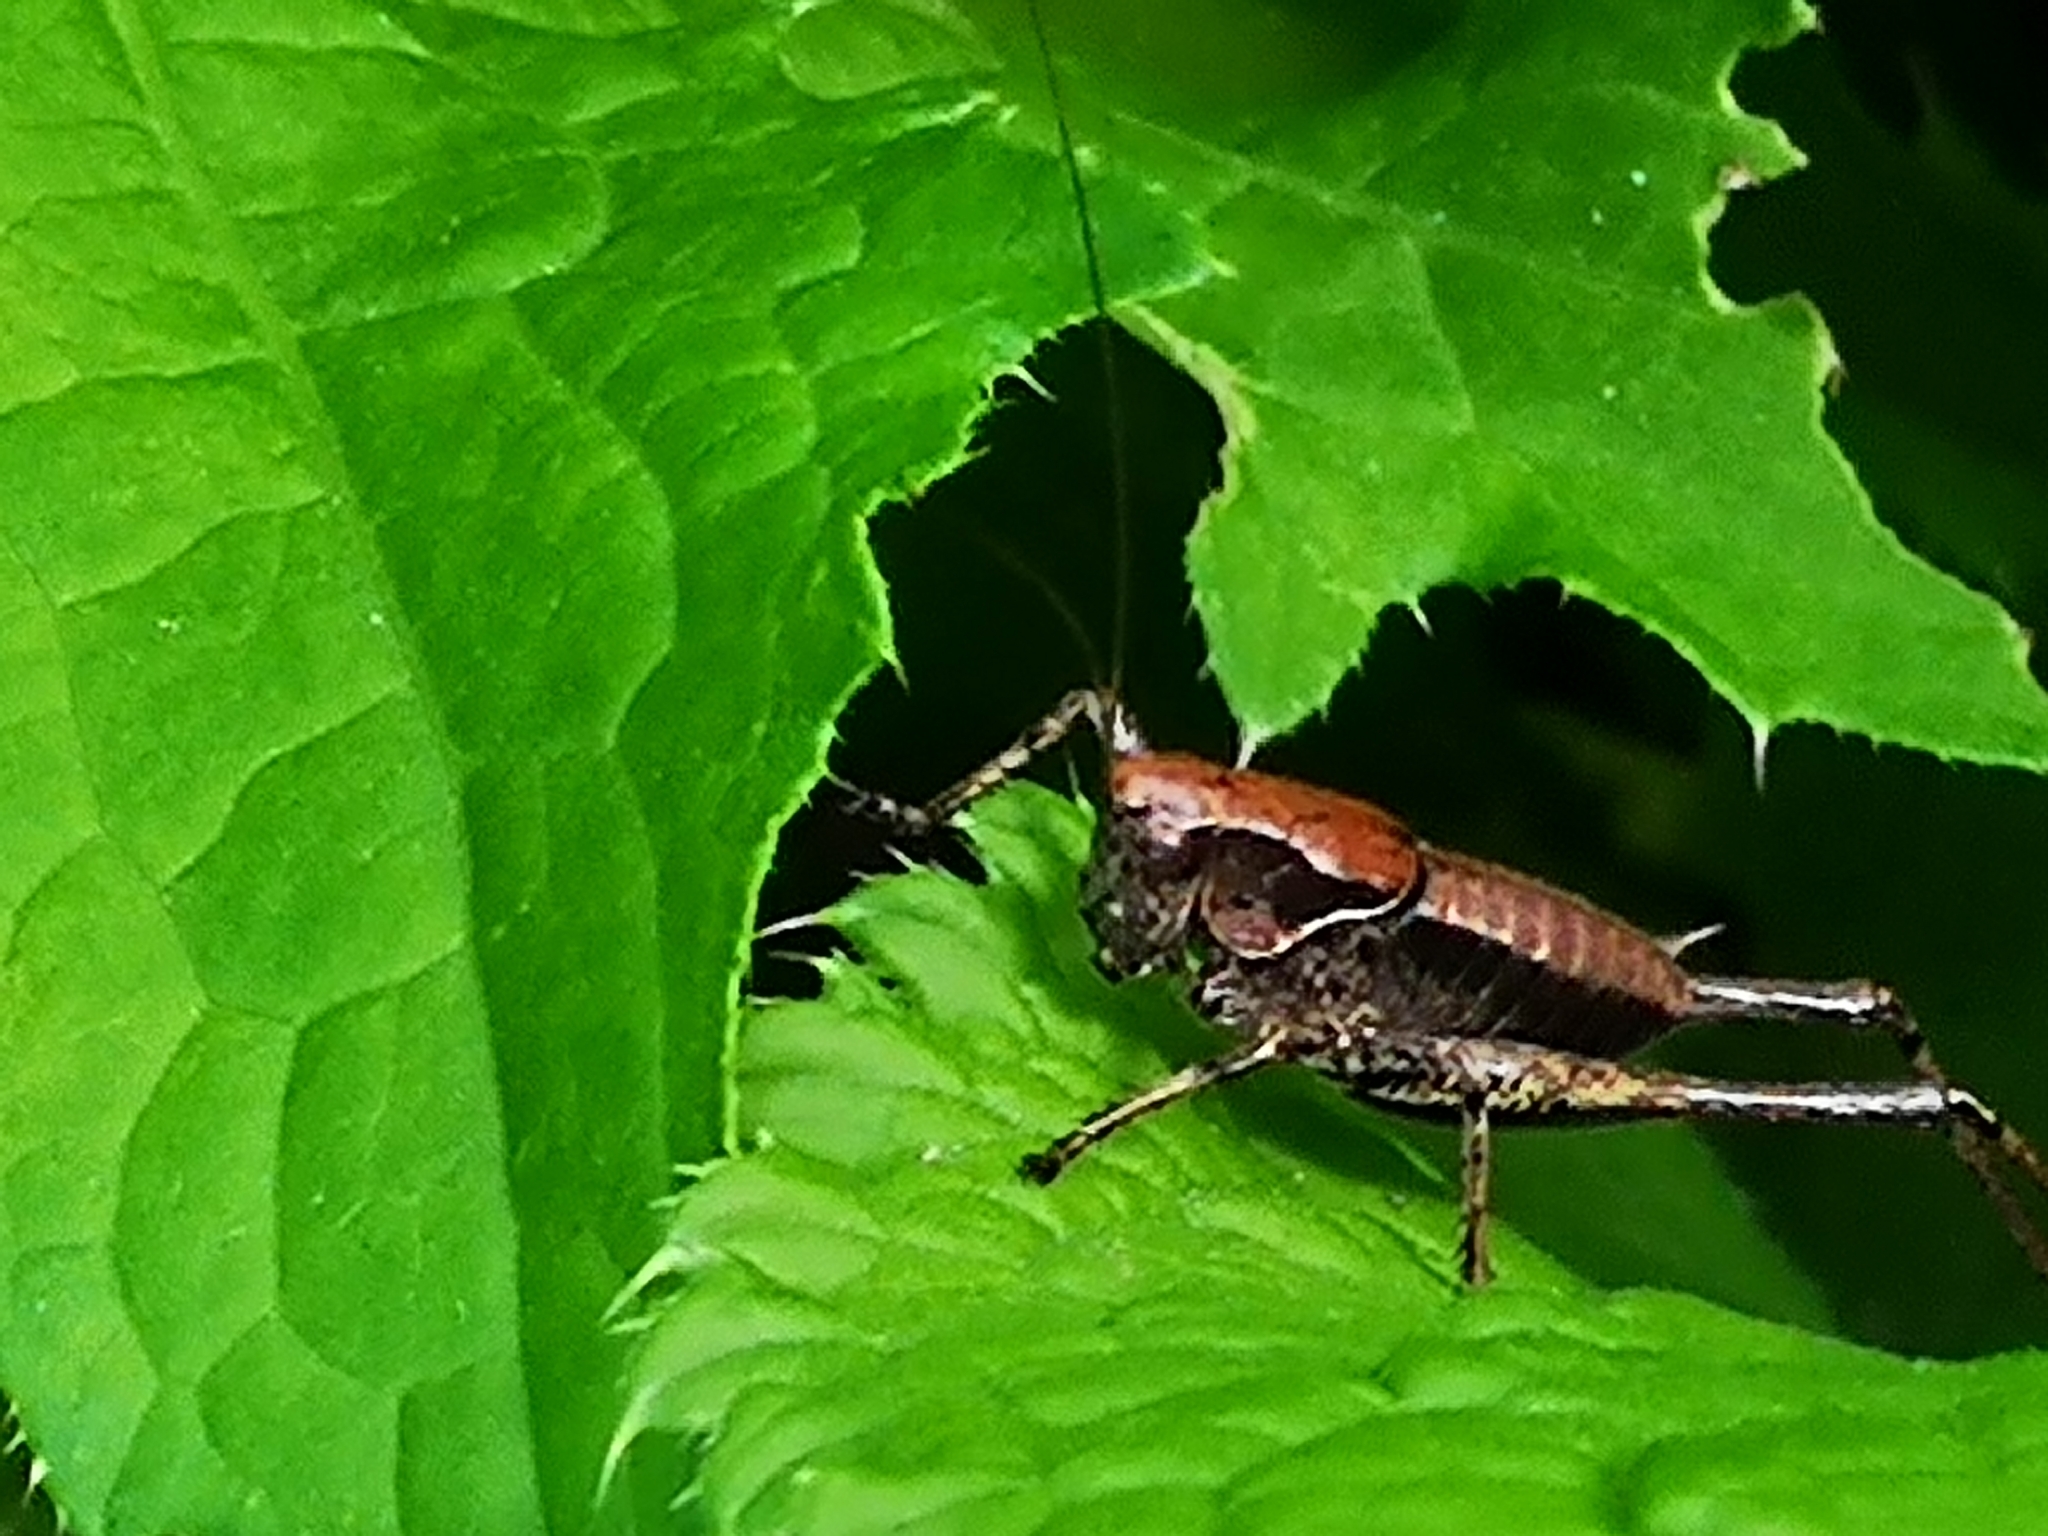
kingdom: Animalia
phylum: Arthropoda
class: Insecta
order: Orthoptera
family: Tettigoniidae
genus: Pholidoptera
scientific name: Pholidoptera griseoaptera
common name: Dark bush-cricket
